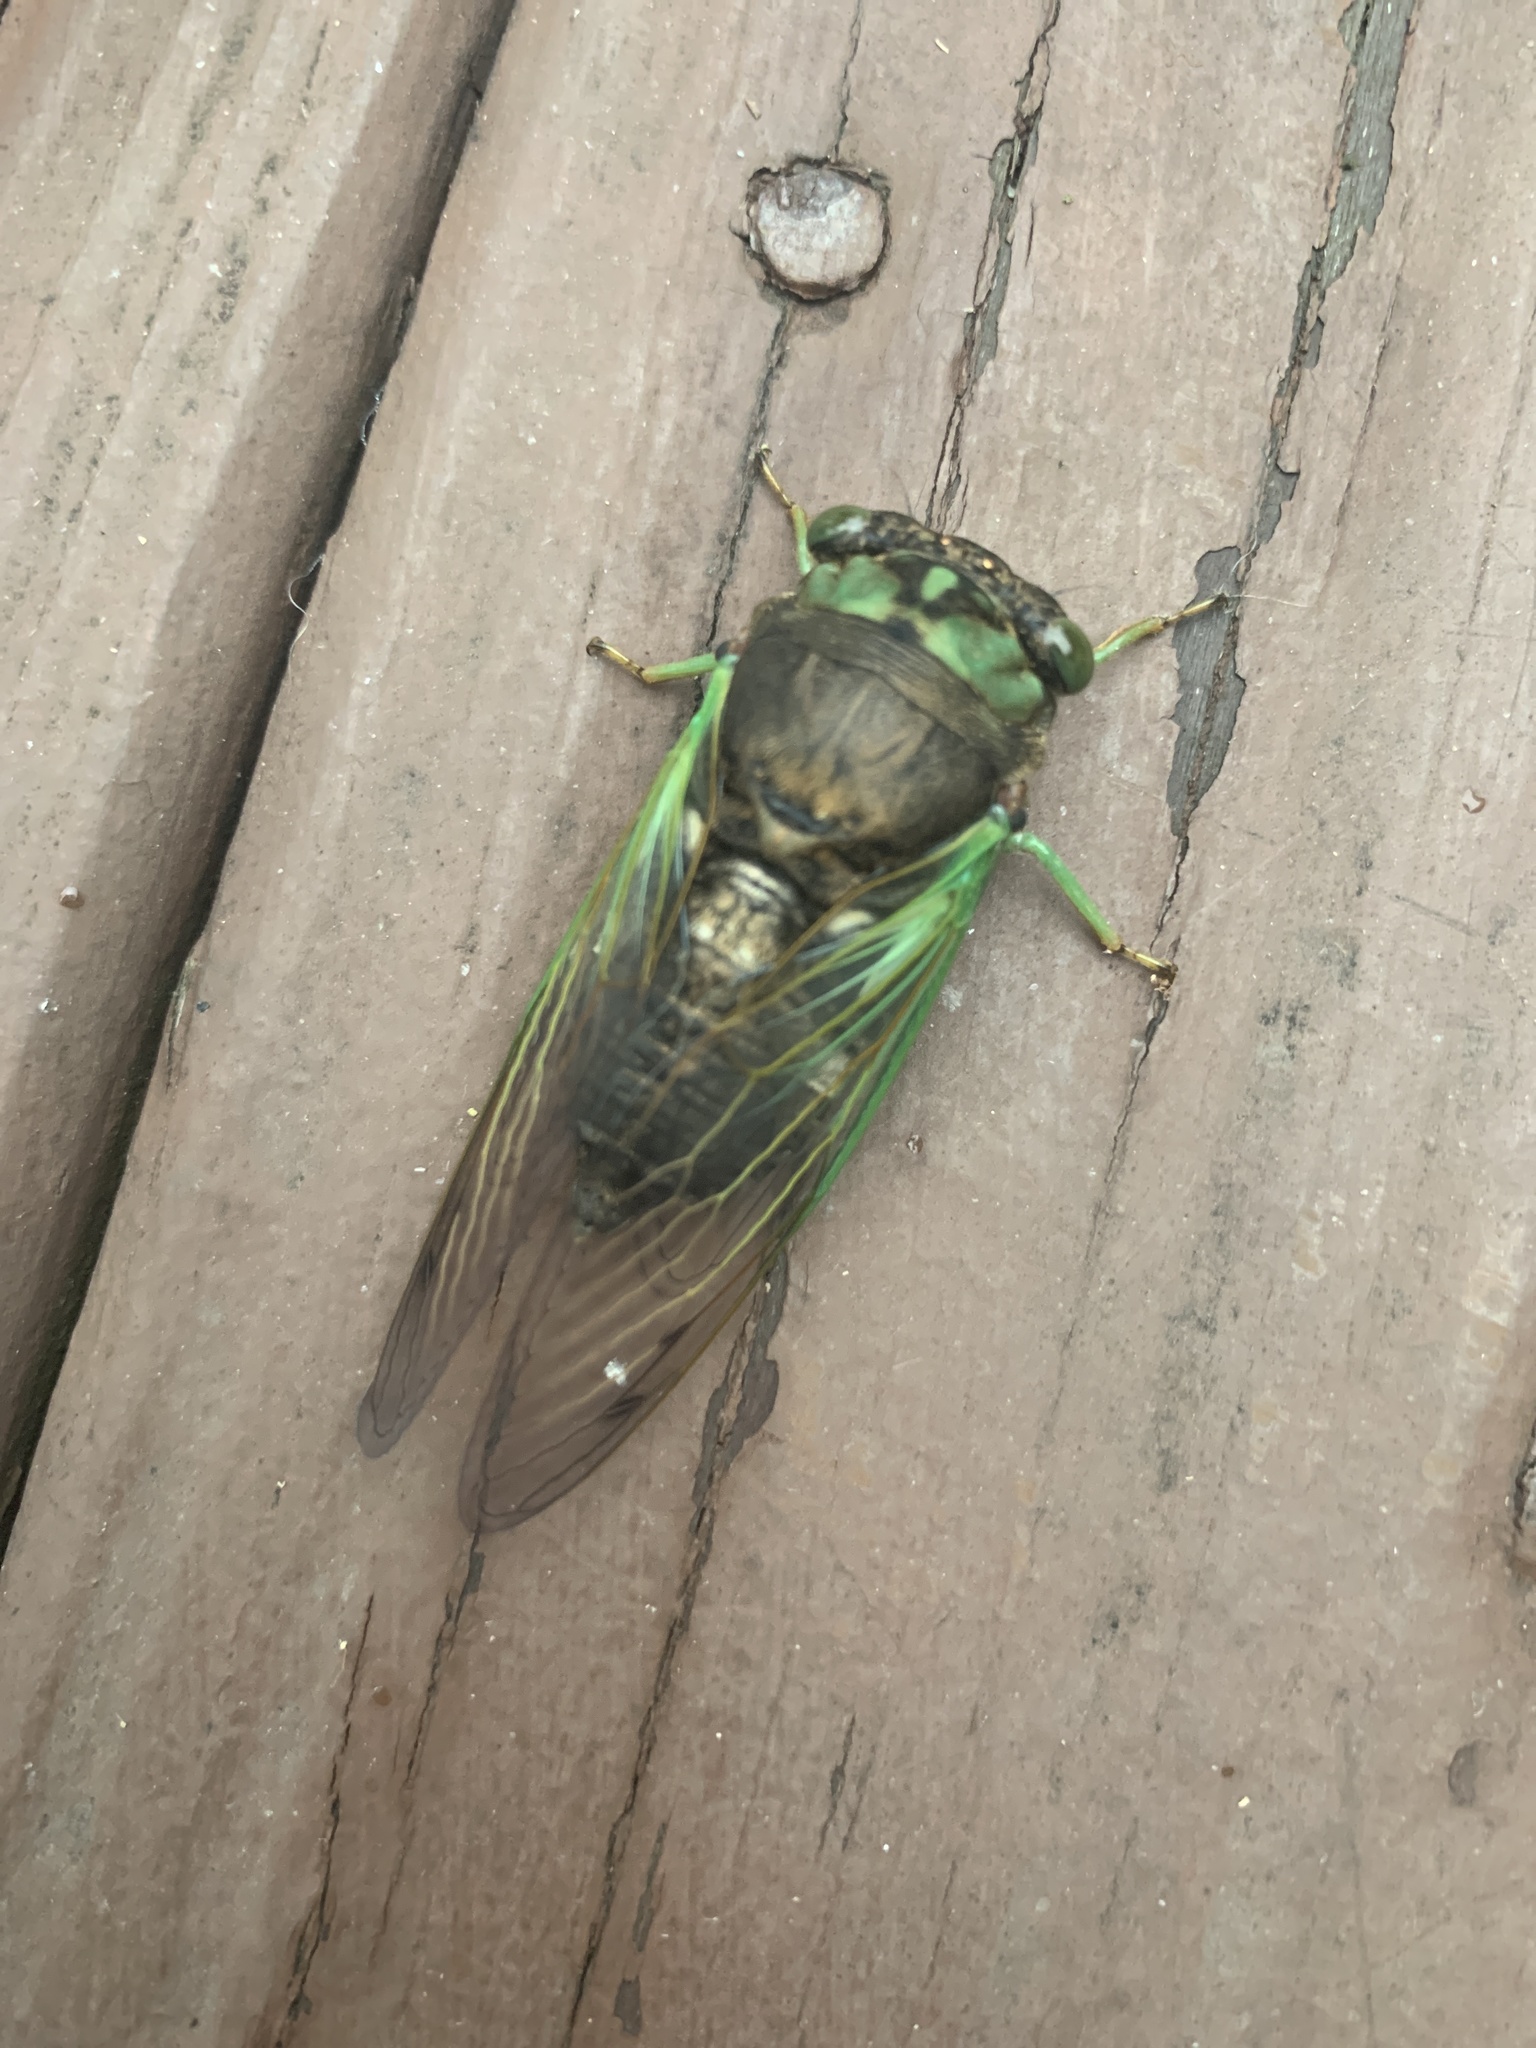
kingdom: Animalia
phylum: Arthropoda
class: Insecta
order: Hemiptera
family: Cicadidae
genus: Neotibicen
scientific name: Neotibicen tibicen
